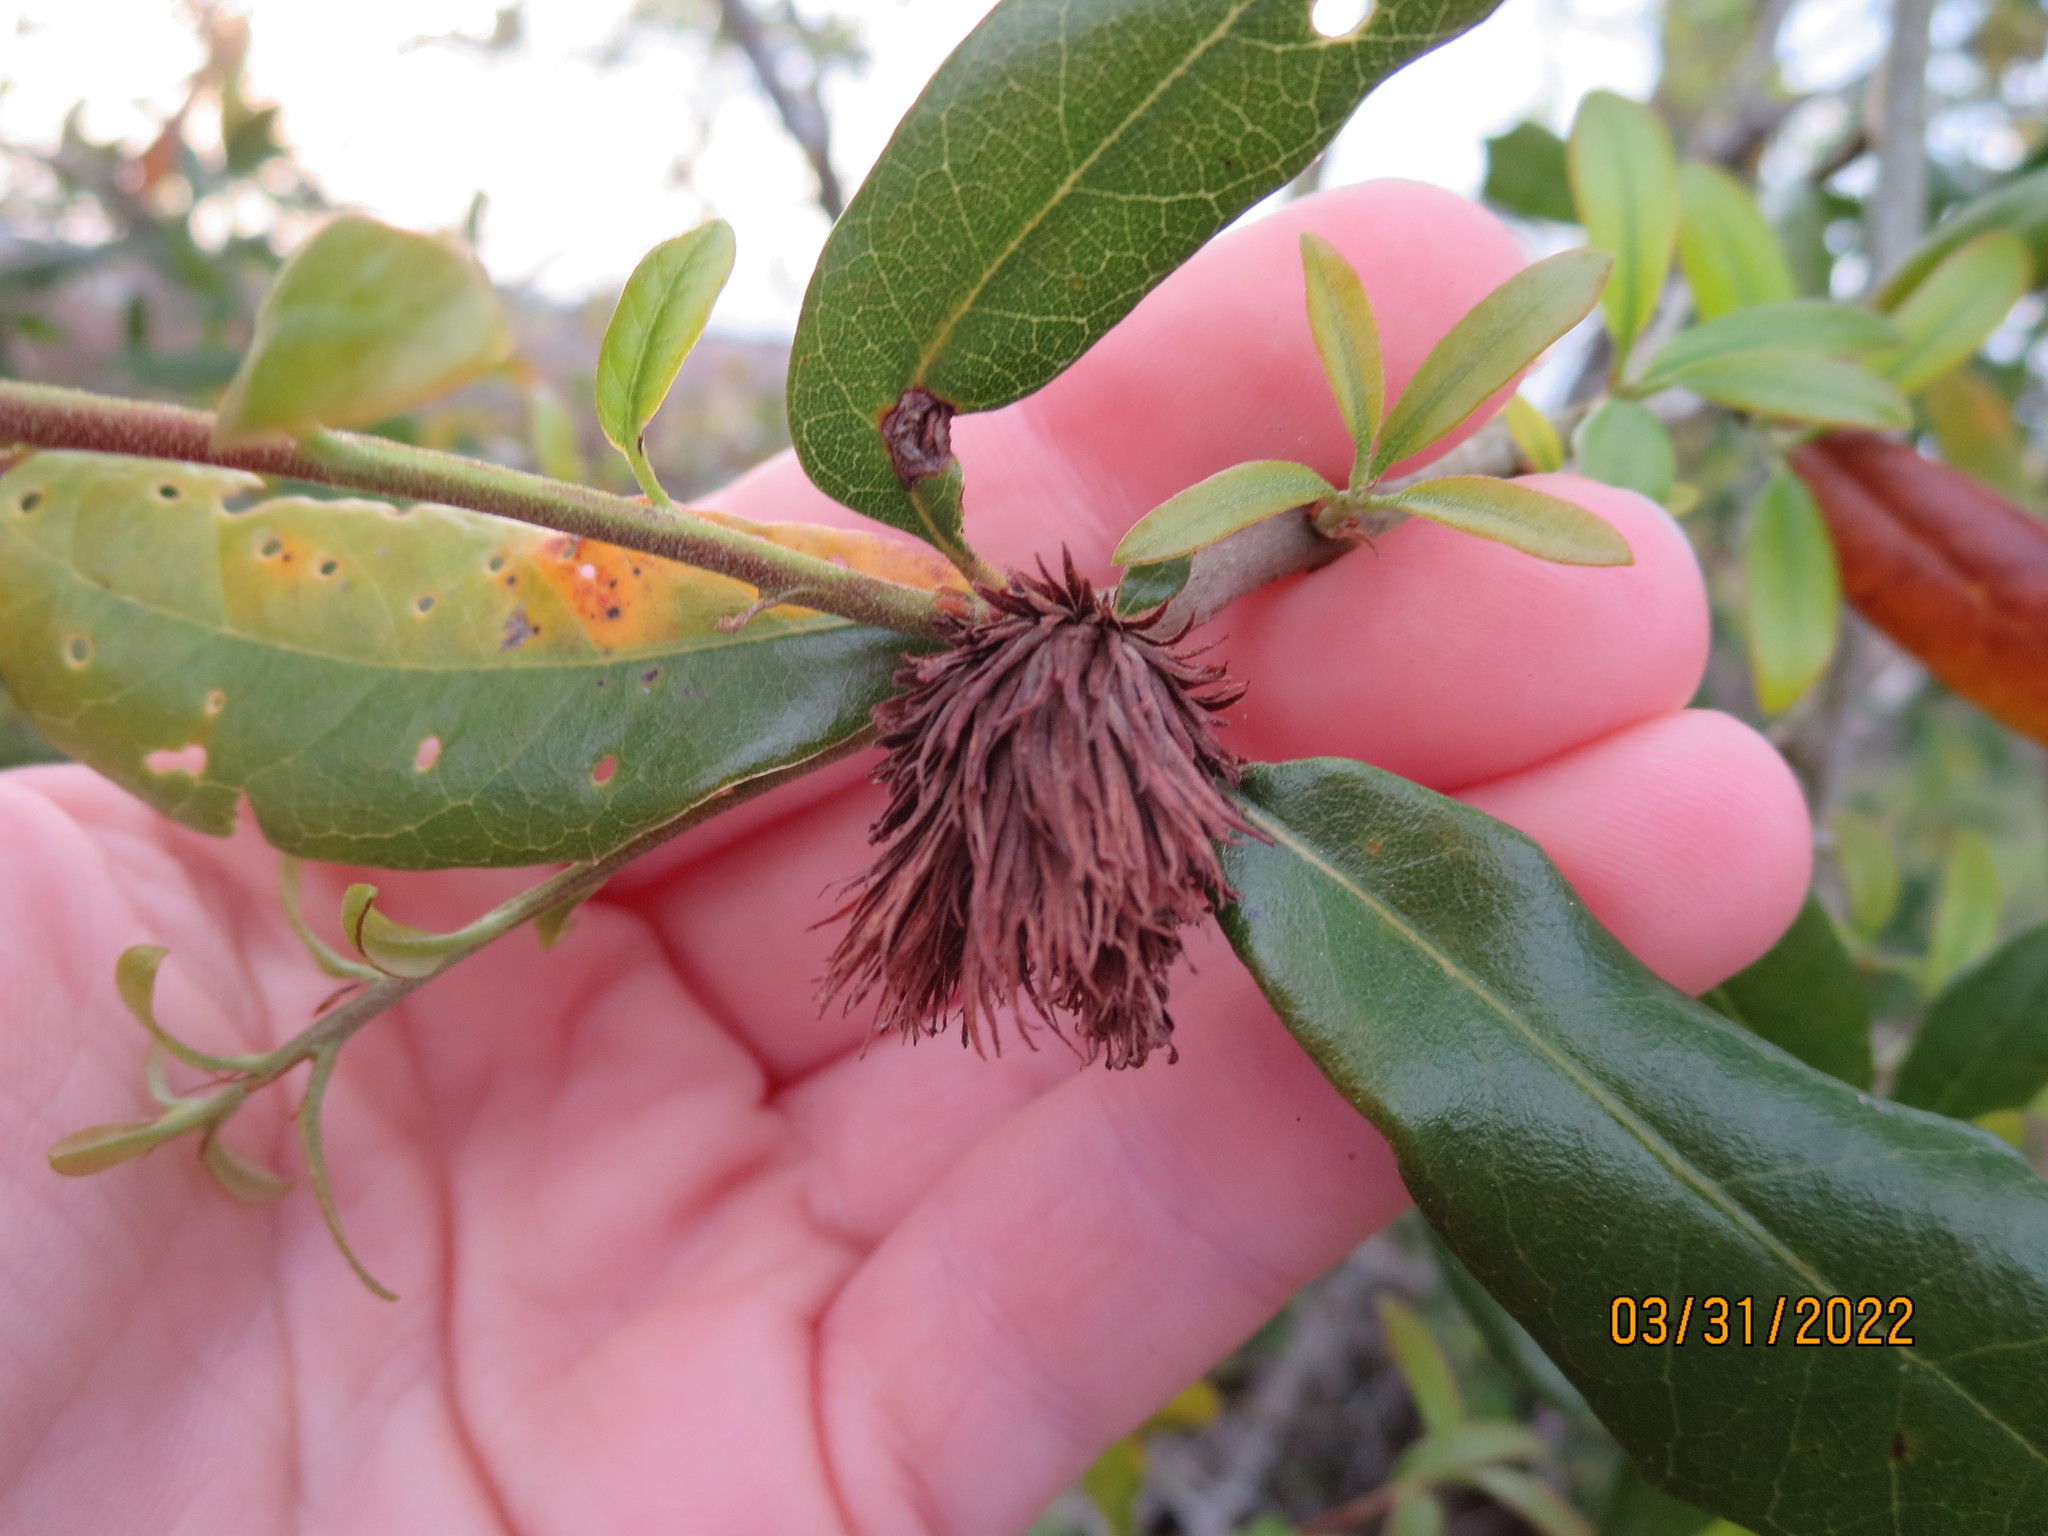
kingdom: Animalia
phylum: Arthropoda
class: Insecta
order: Hymenoptera
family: Cynipidae
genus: Andricus
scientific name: Andricus quercusfoliatus
